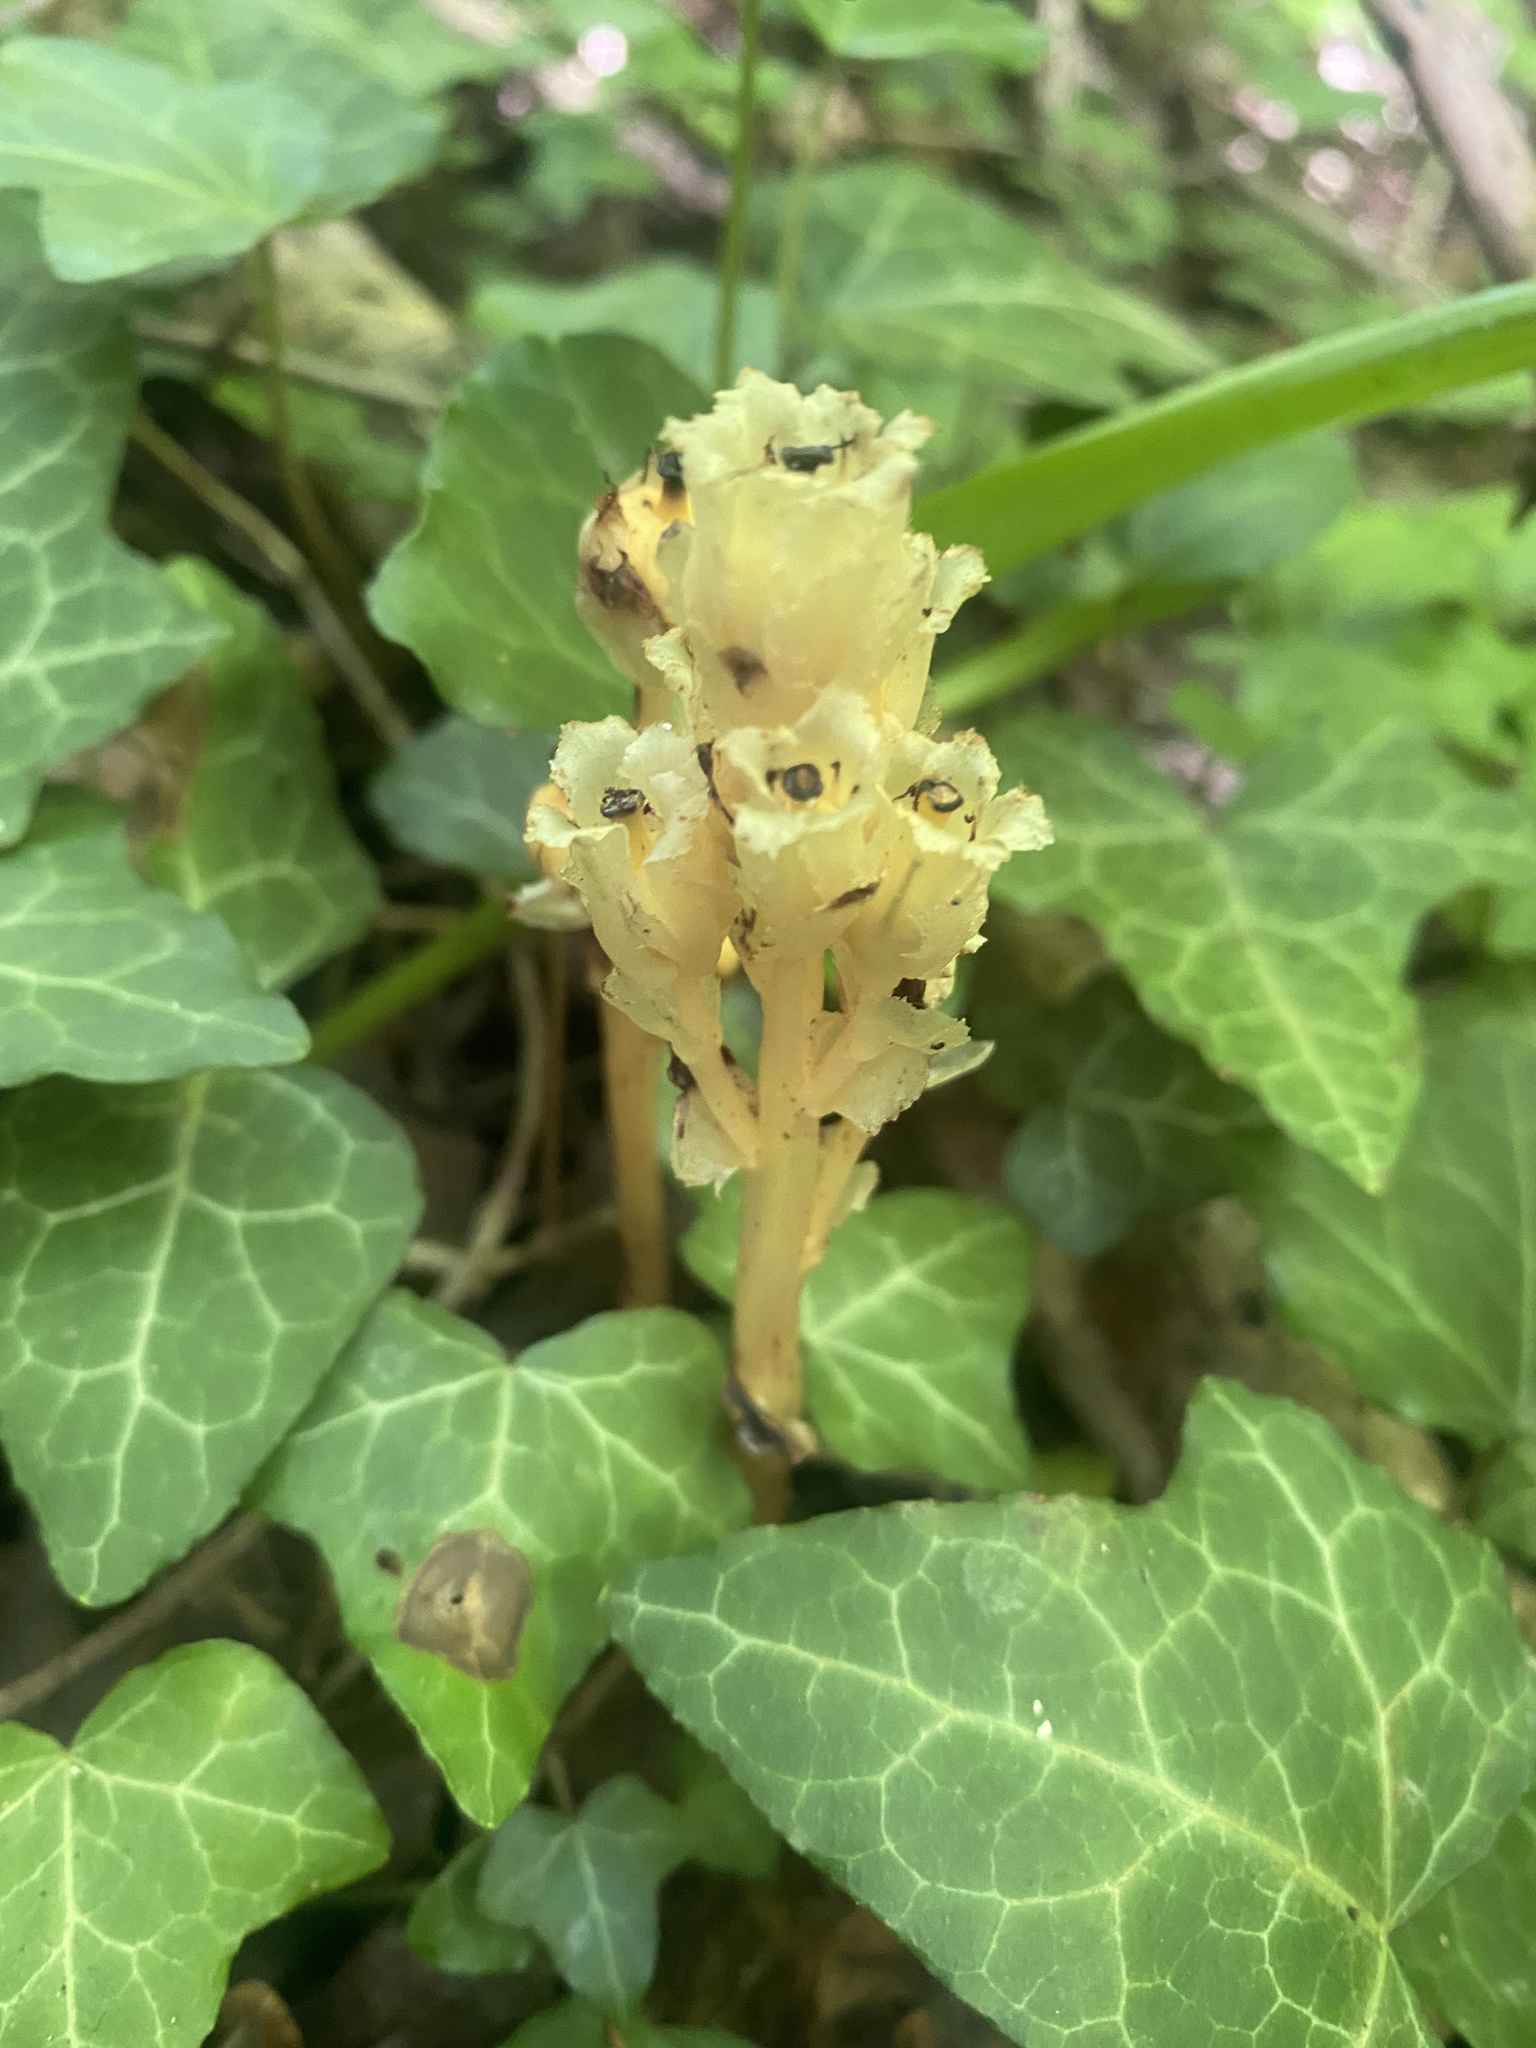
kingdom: Plantae
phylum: Tracheophyta
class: Magnoliopsida
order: Ericales
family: Ericaceae
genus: Hypopitys
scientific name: Hypopitys monotropa
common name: Yellow bird's-nest
